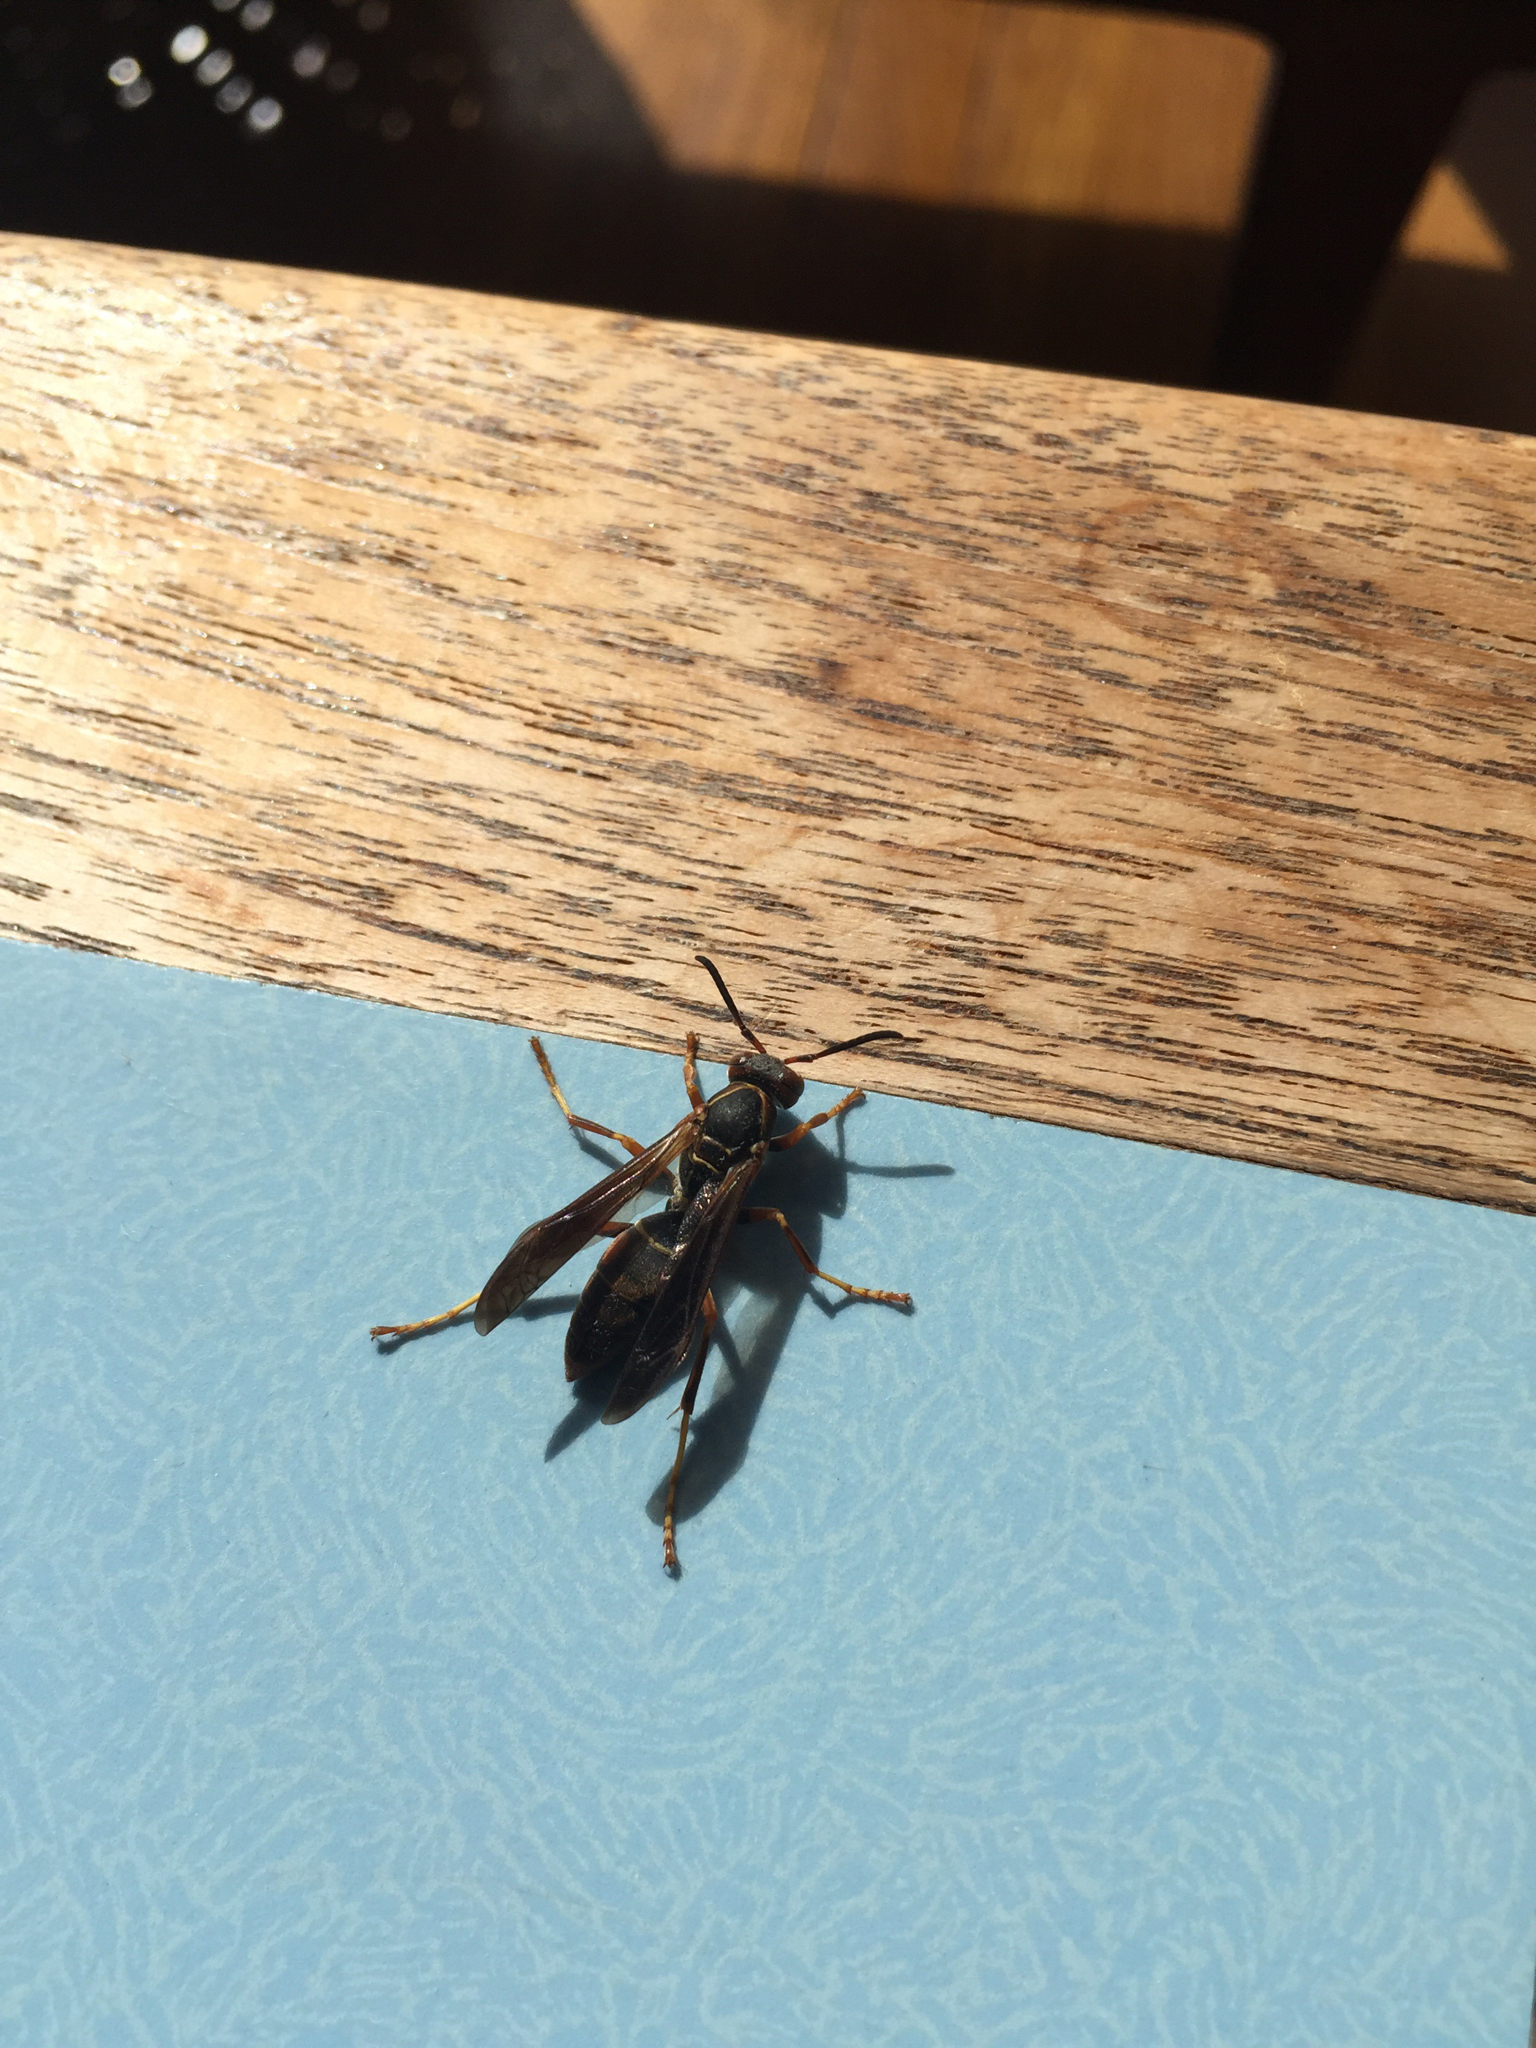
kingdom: Animalia
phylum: Arthropoda
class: Insecta
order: Hymenoptera
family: Eumenidae
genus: Polistes
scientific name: Polistes fuscatus
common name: Dark paper wasp
